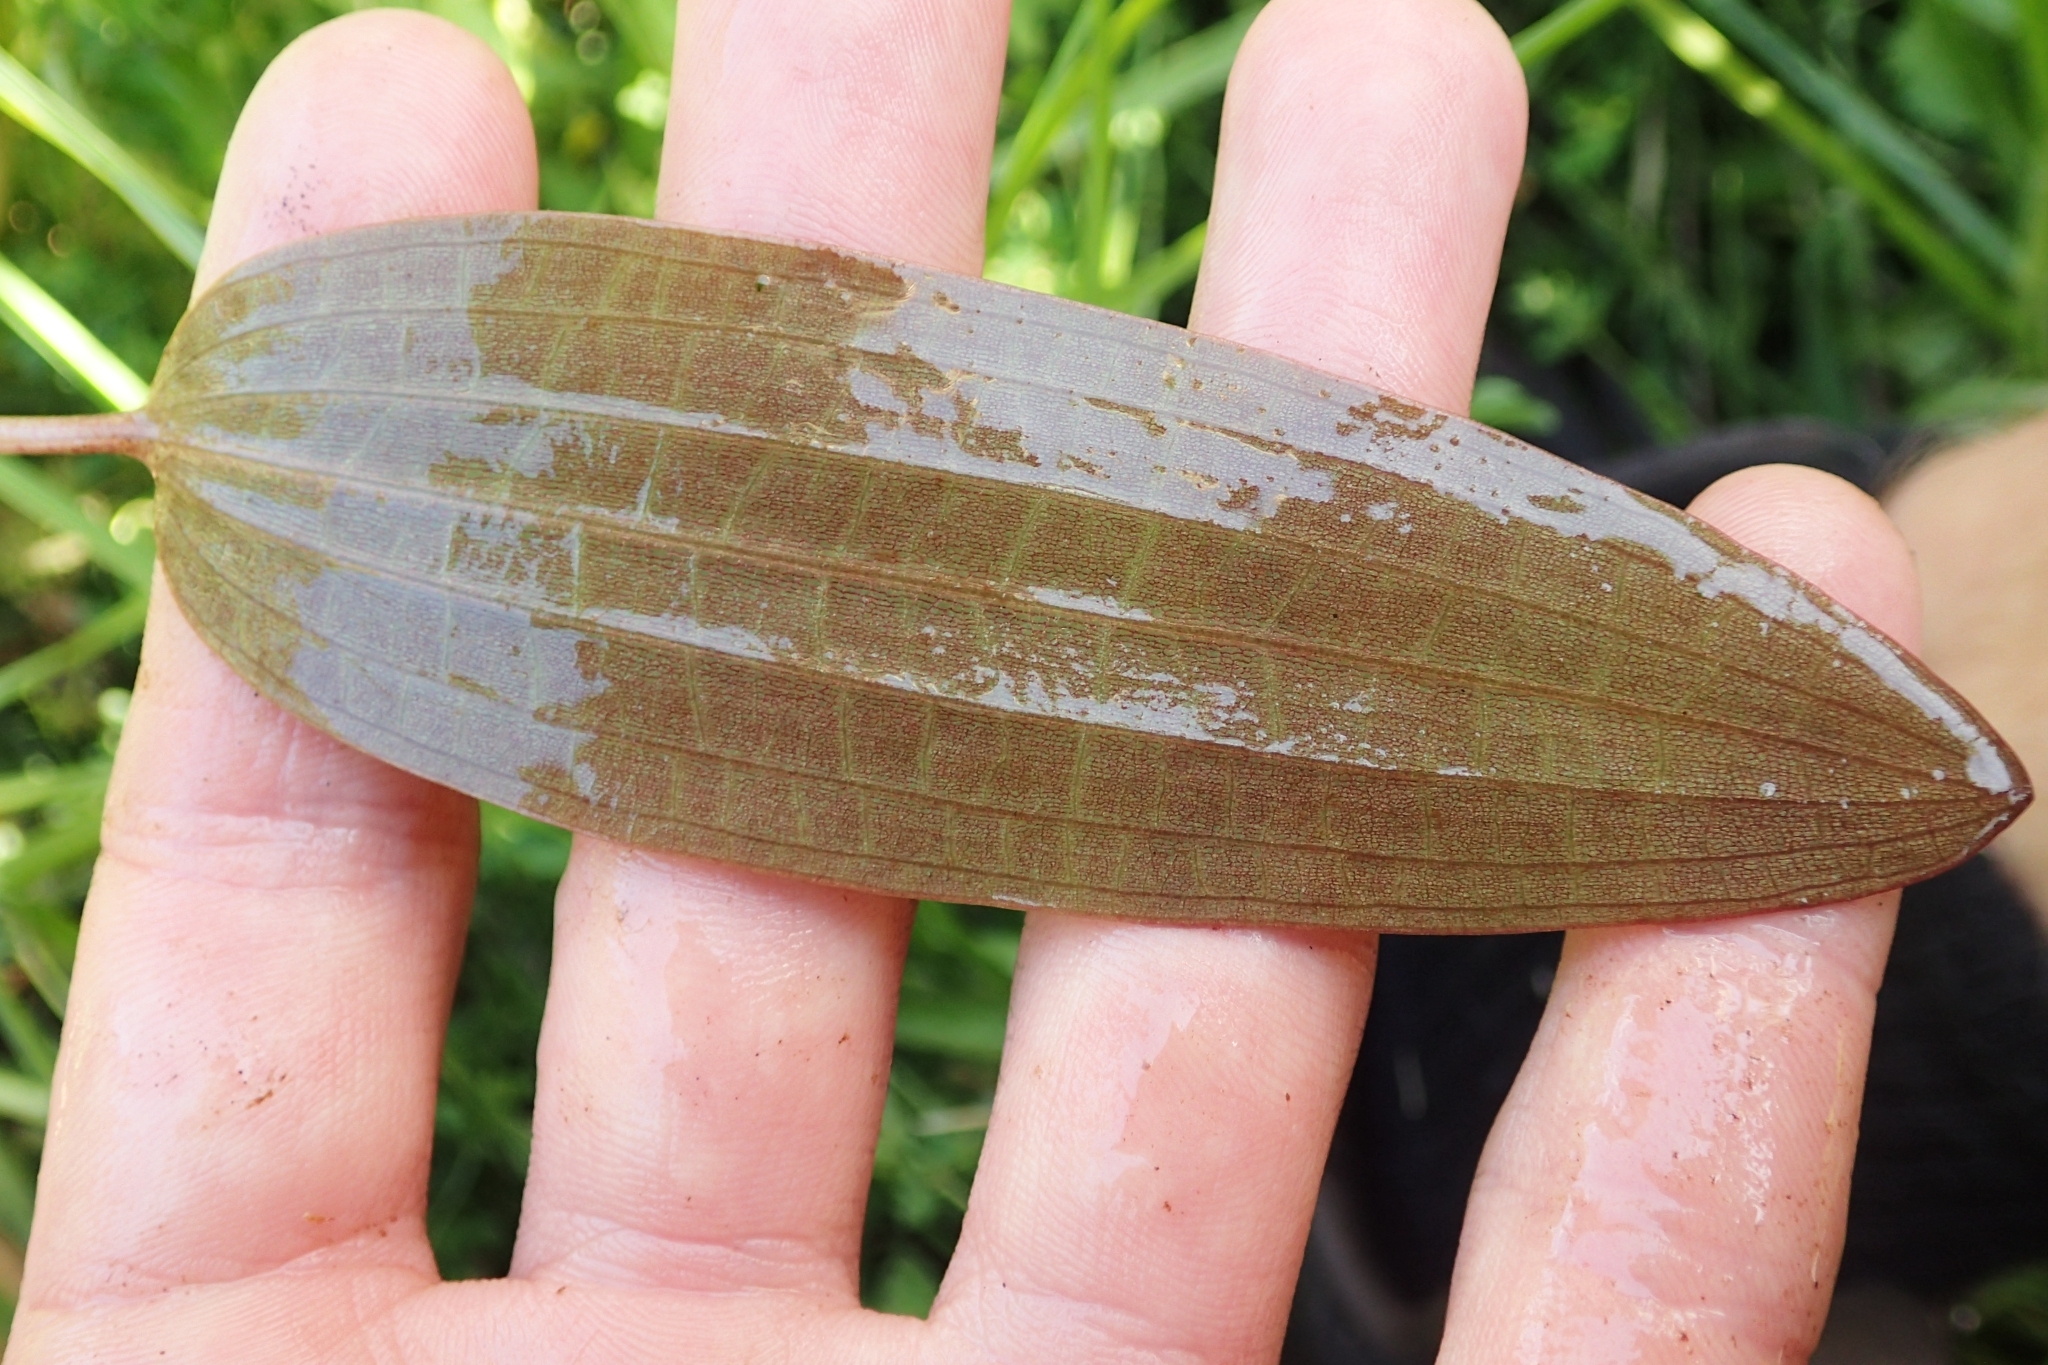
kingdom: Plantae
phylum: Tracheophyta
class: Liliopsida
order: Alismatales
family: Hydrocharitaceae
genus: Ottelia
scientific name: Ottelia ovalifolia
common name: Swamp-lily
